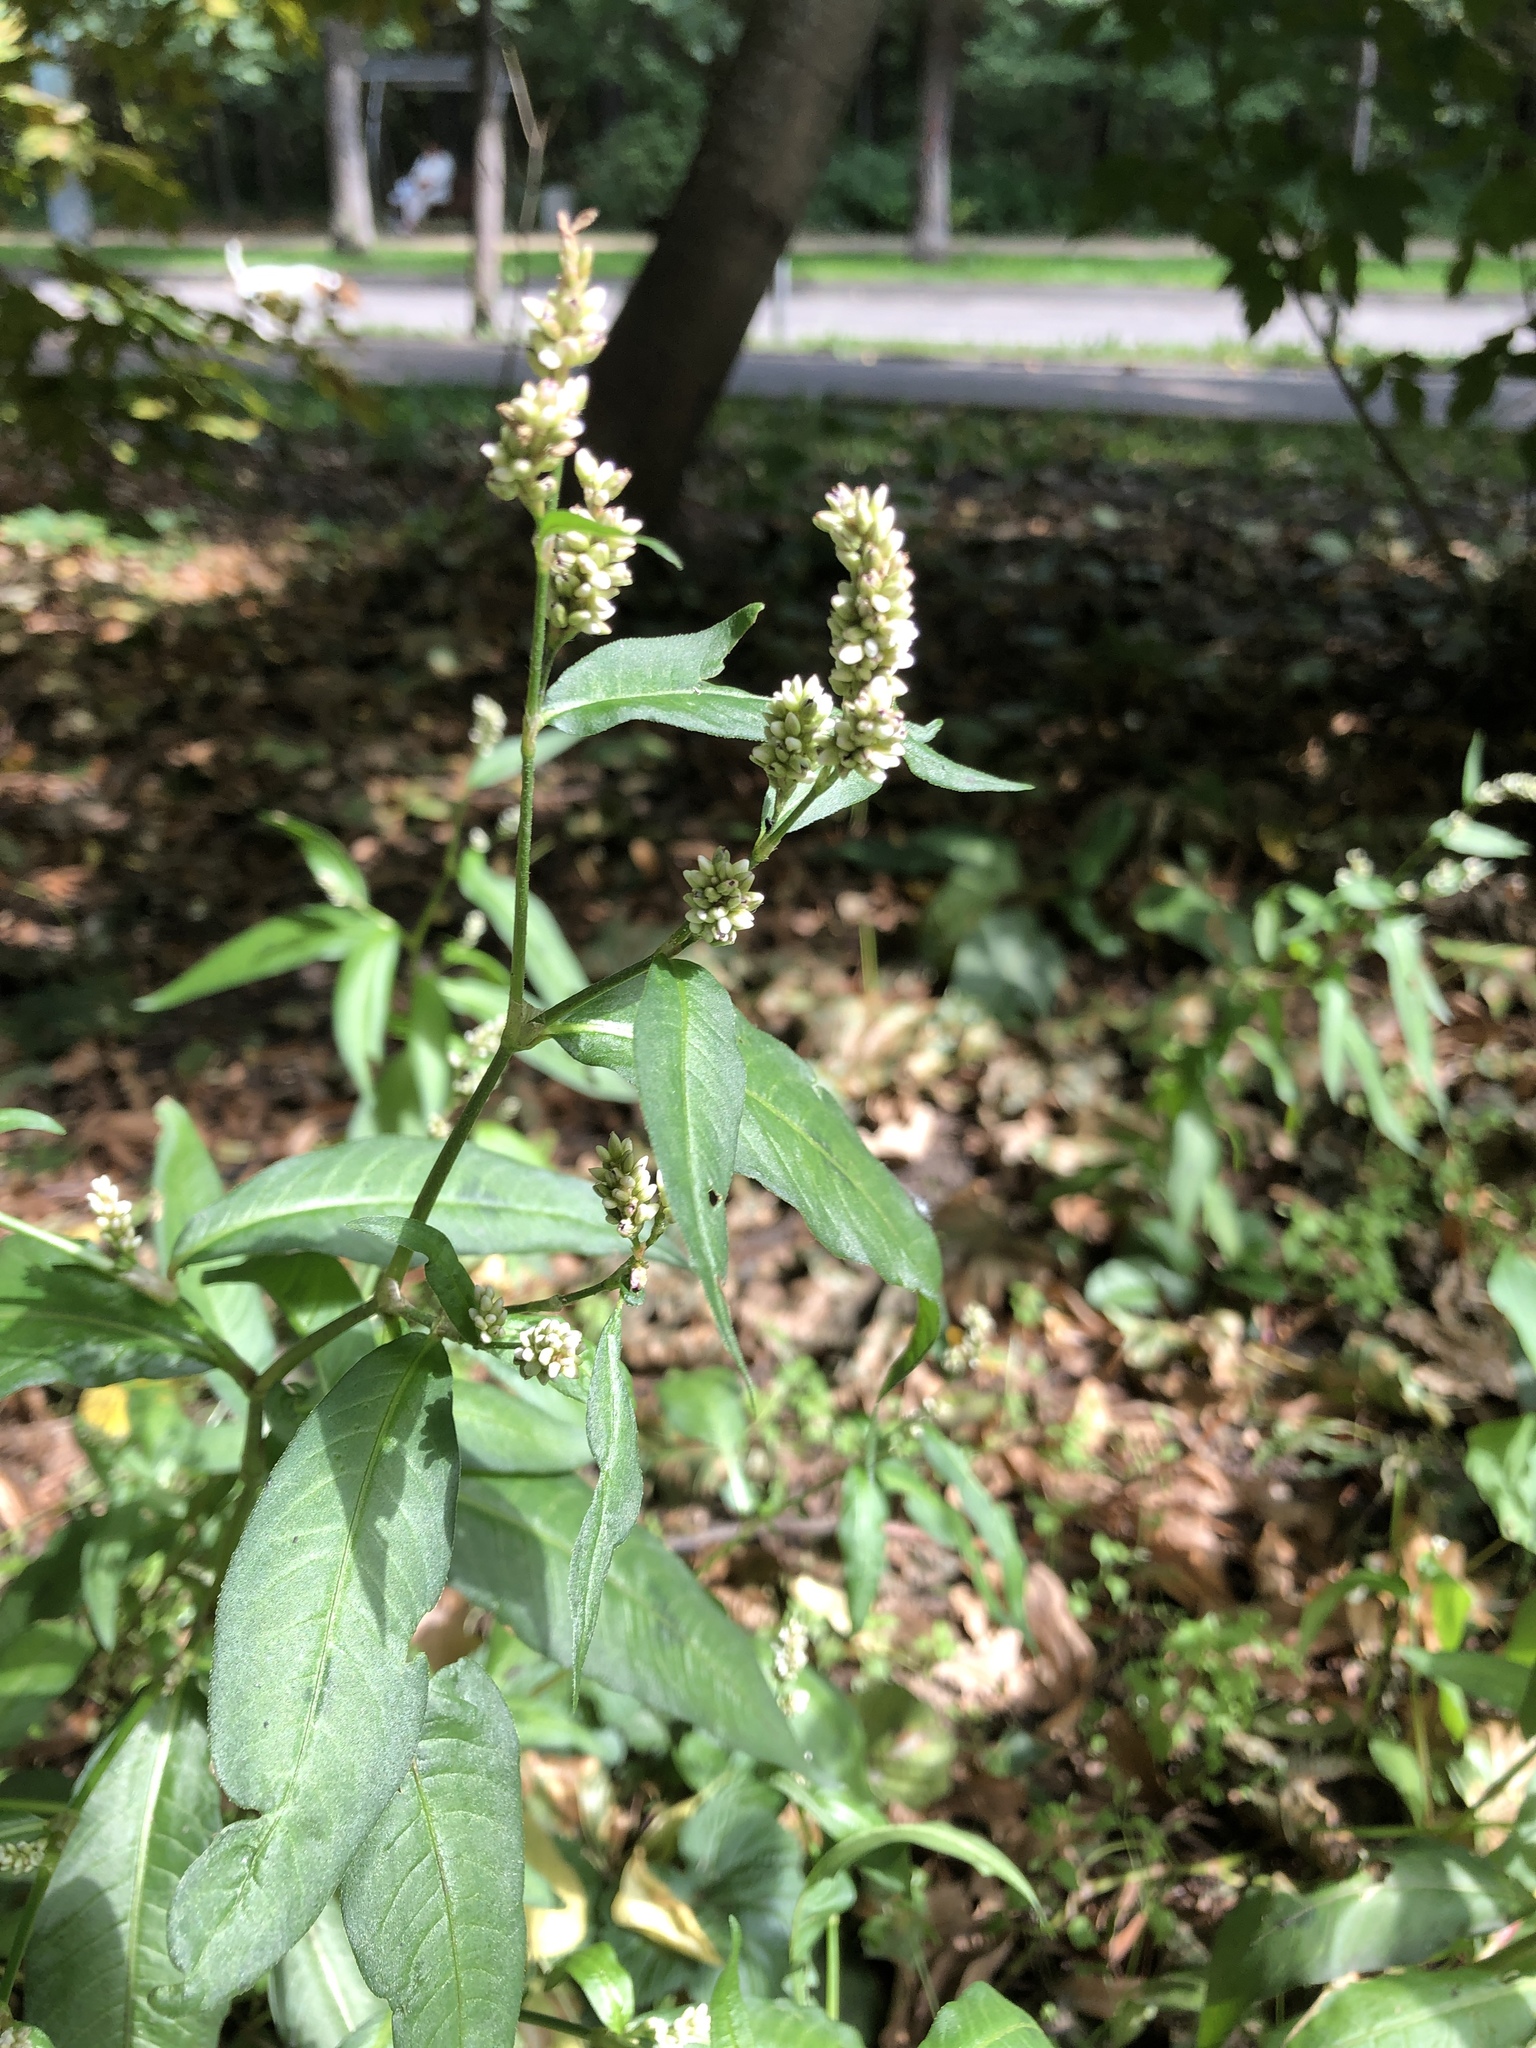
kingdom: Plantae
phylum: Tracheophyta
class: Magnoliopsida
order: Caryophyllales
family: Polygonaceae
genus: Persicaria
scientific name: Persicaria lapathifolia
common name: Curlytop knotweed
